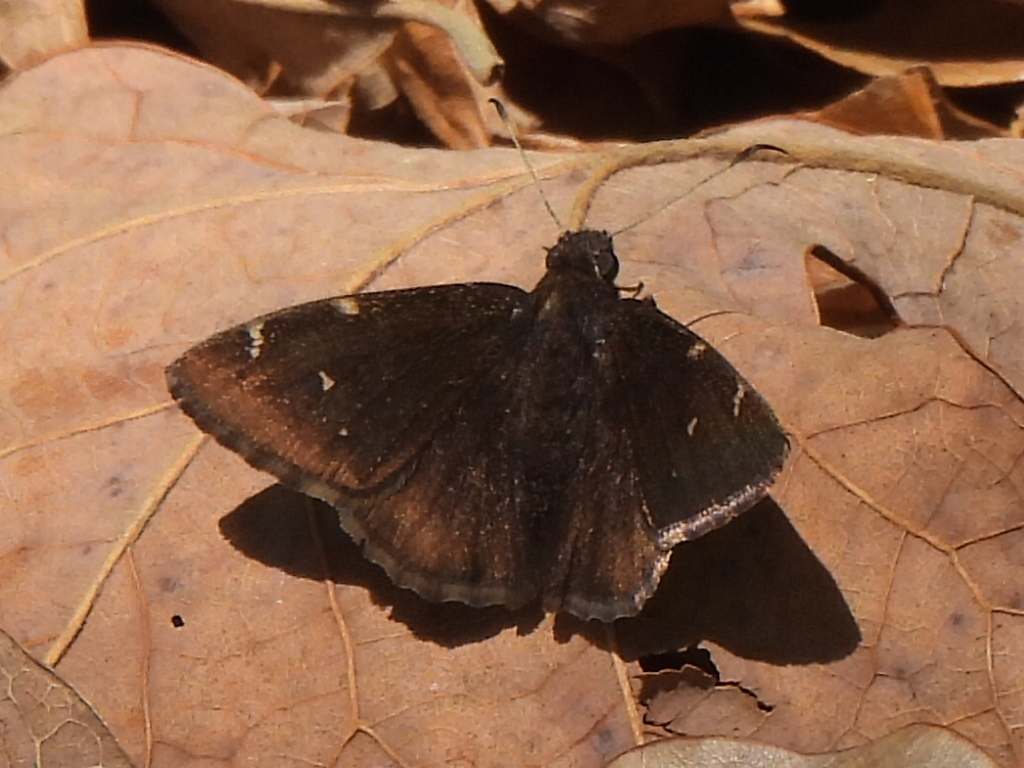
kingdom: Animalia
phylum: Arthropoda
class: Insecta
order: Lepidoptera
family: Hesperiidae
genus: Thorybes
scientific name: Thorybes pylades
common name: Northern cloudywing
